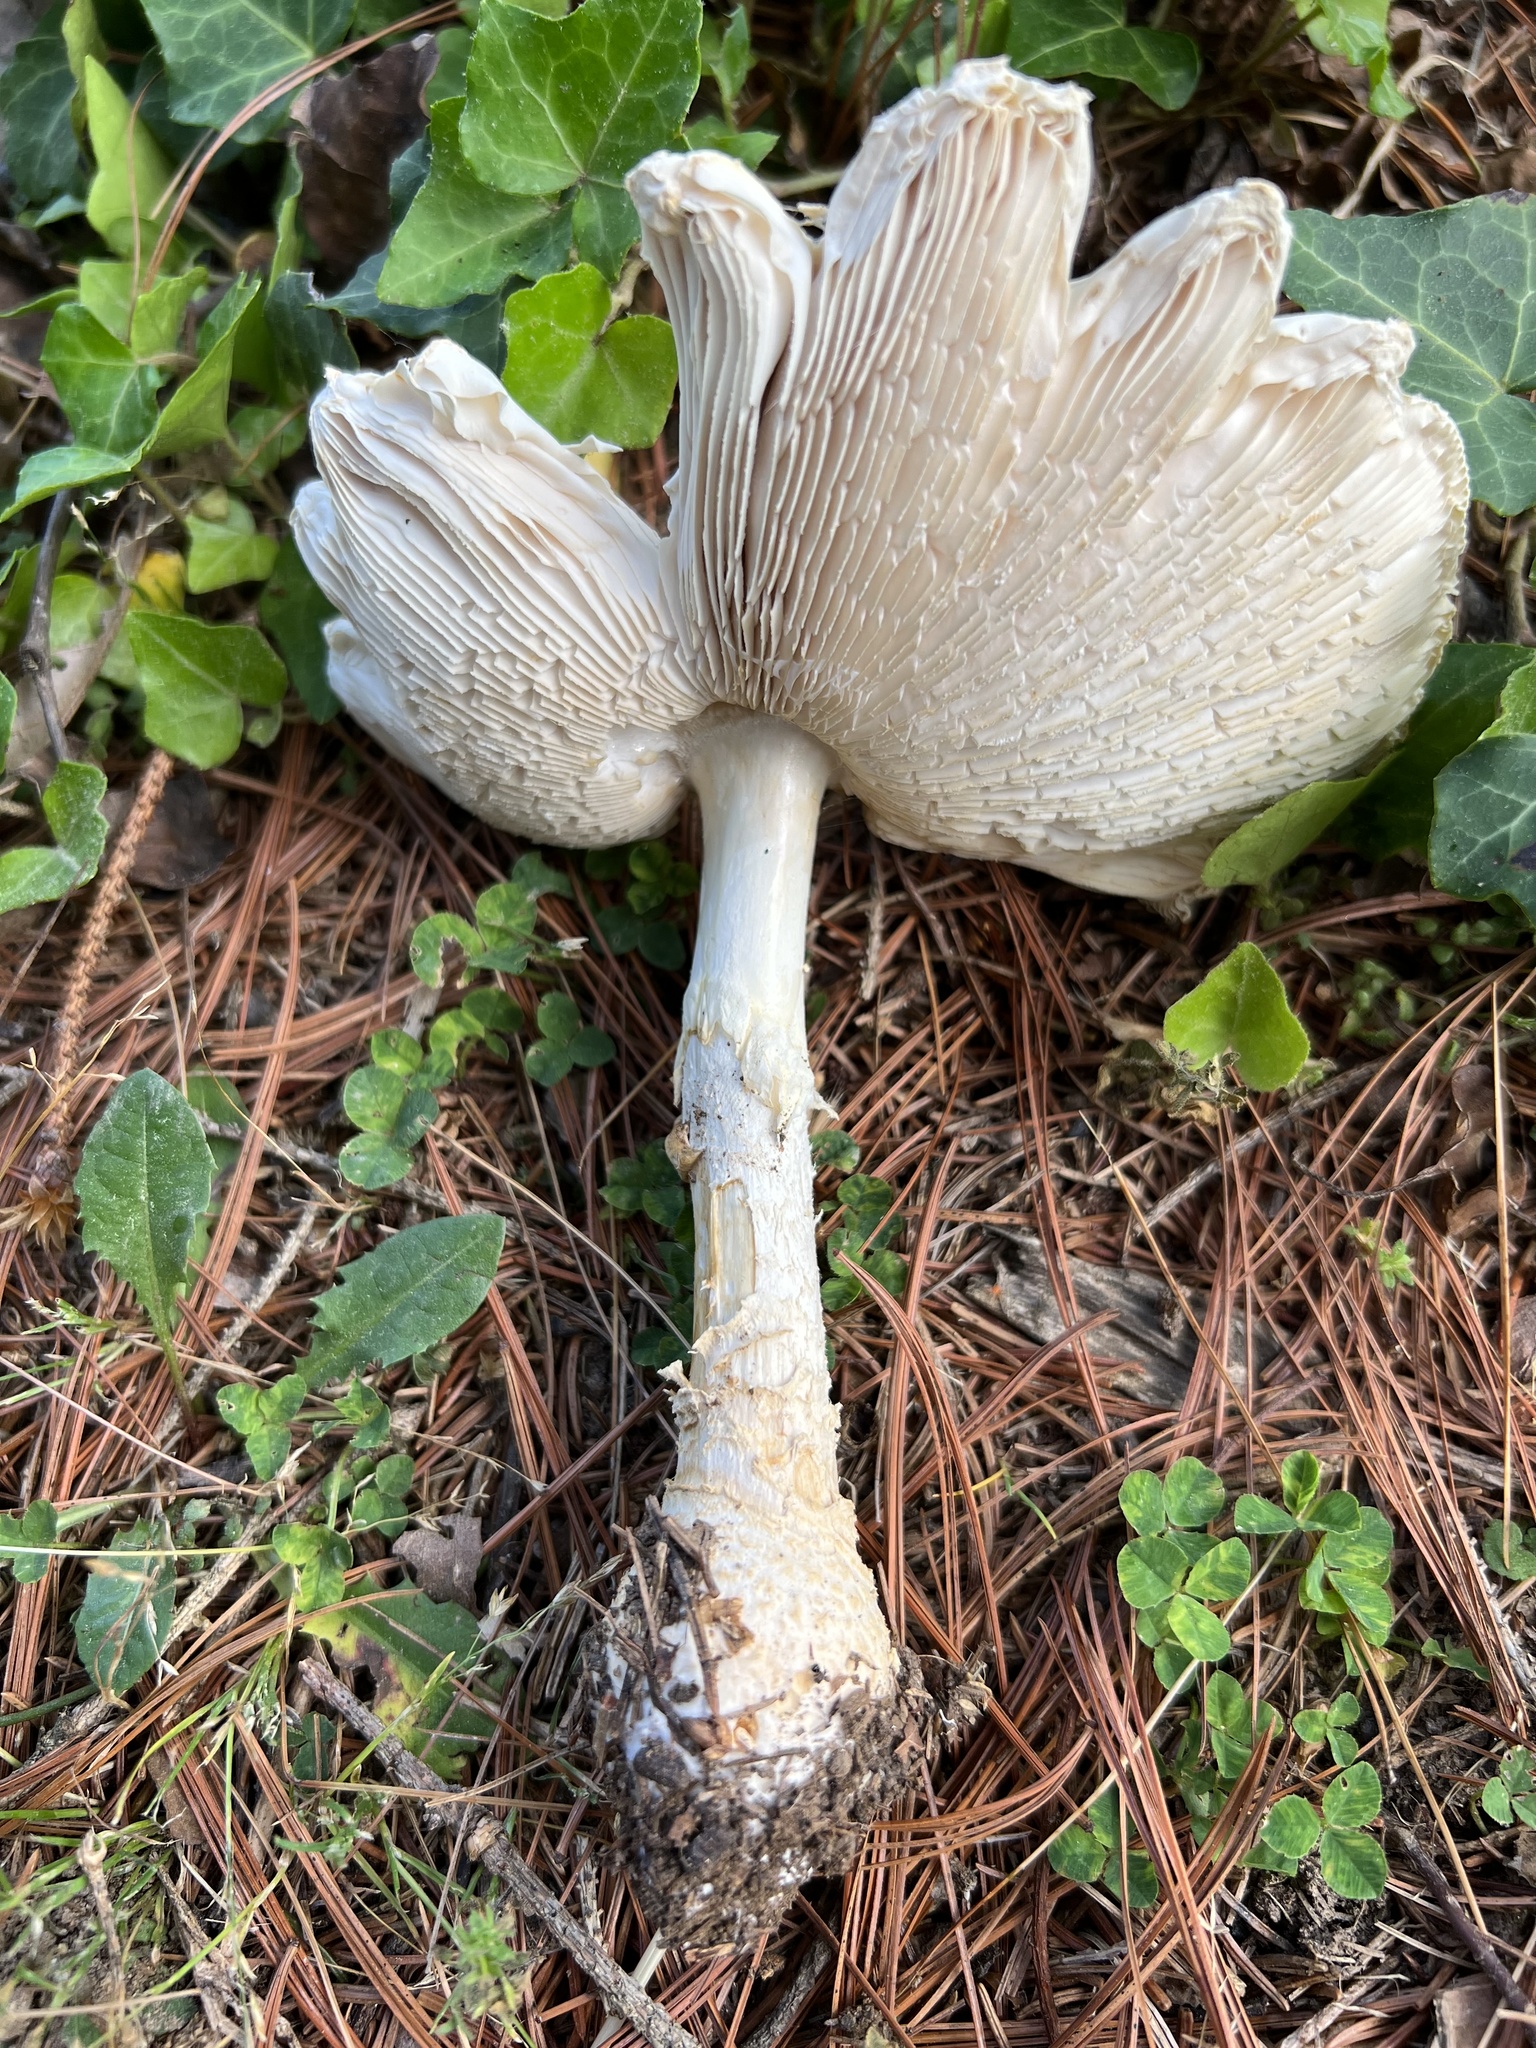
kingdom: Fungi
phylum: Basidiomycota
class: Agaricomycetes
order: Agaricales
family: Amanitaceae
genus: Amanita
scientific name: Amanita muscaria
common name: Fly agaric
